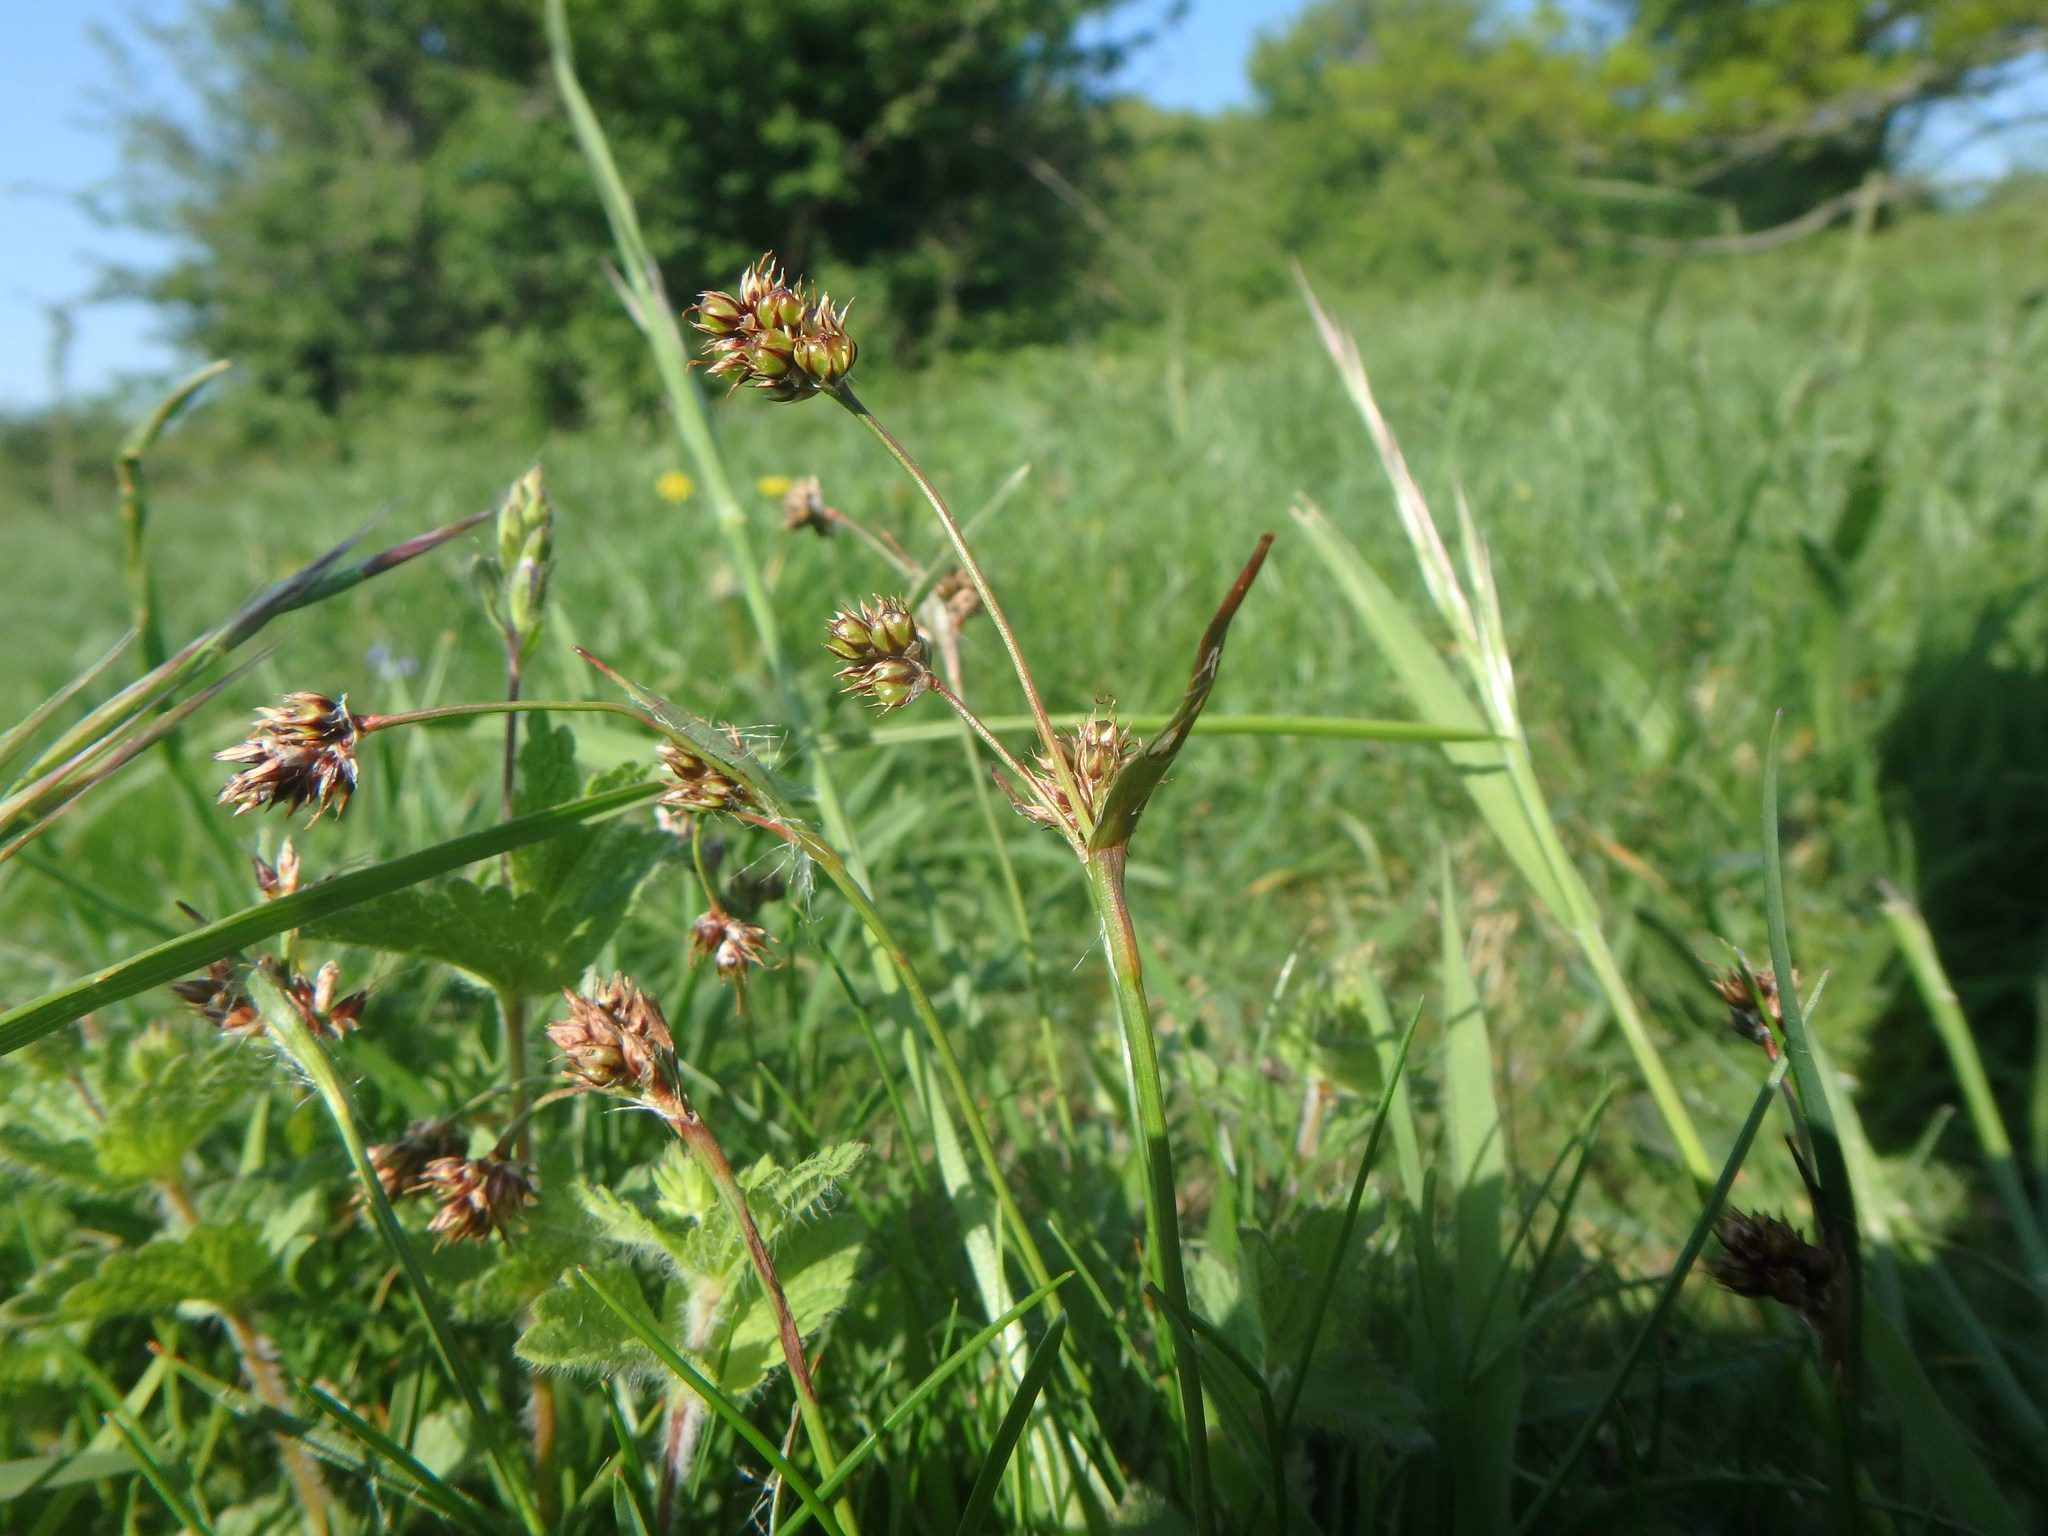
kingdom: Plantae
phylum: Tracheophyta
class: Liliopsida
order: Poales
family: Juncaceae
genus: Luzula
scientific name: Luzula campestris
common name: Field wood-rush
